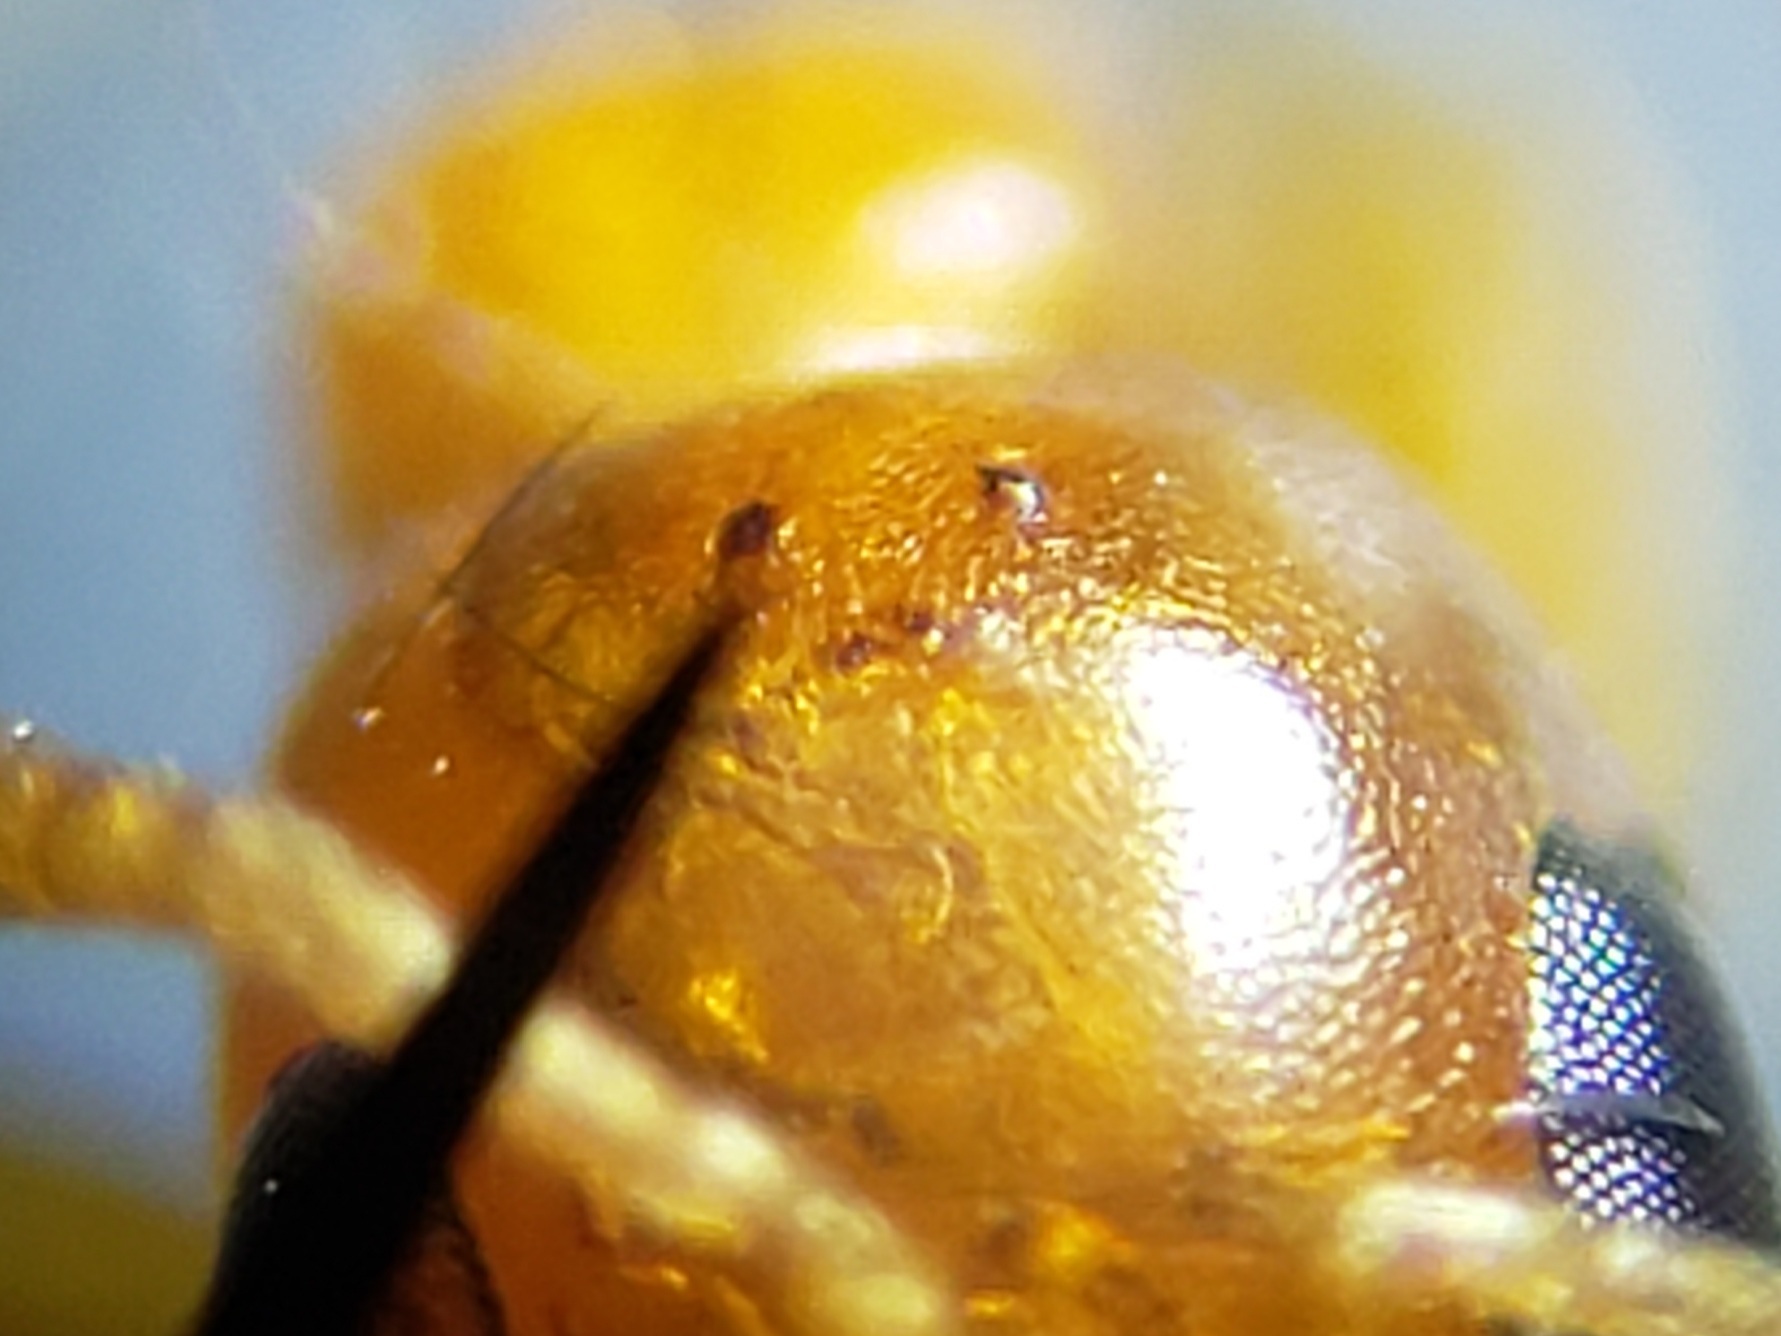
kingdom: Animalia
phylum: Arthropoda
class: Insecta
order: Hymenoptera
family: Formicidae
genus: Pseudomyrmex
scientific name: Pseudomyrmex pallidus
